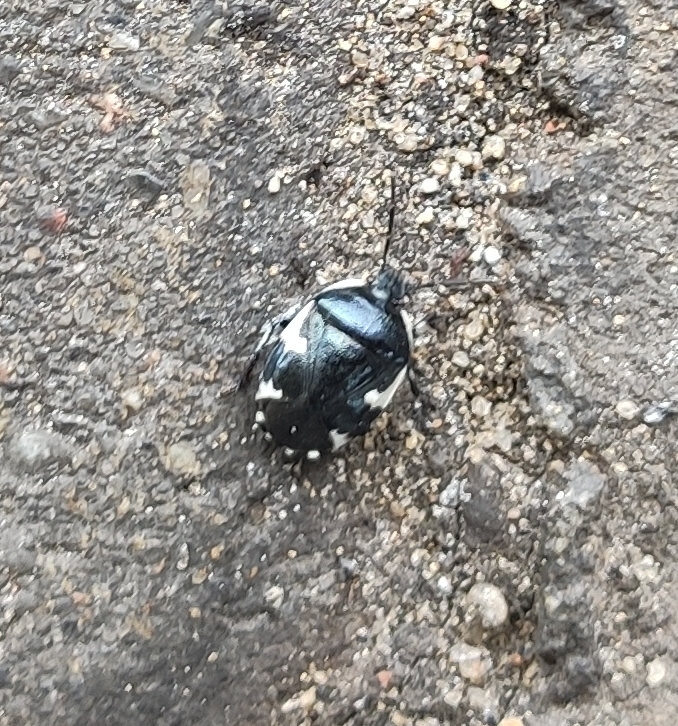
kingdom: Animalia
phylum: Arthropoda
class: Insecta
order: Hemiptera
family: Cydnidae
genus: Tritomegas
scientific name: Tritomegas sexmaculatus
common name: Rambur's pied shieldbug
